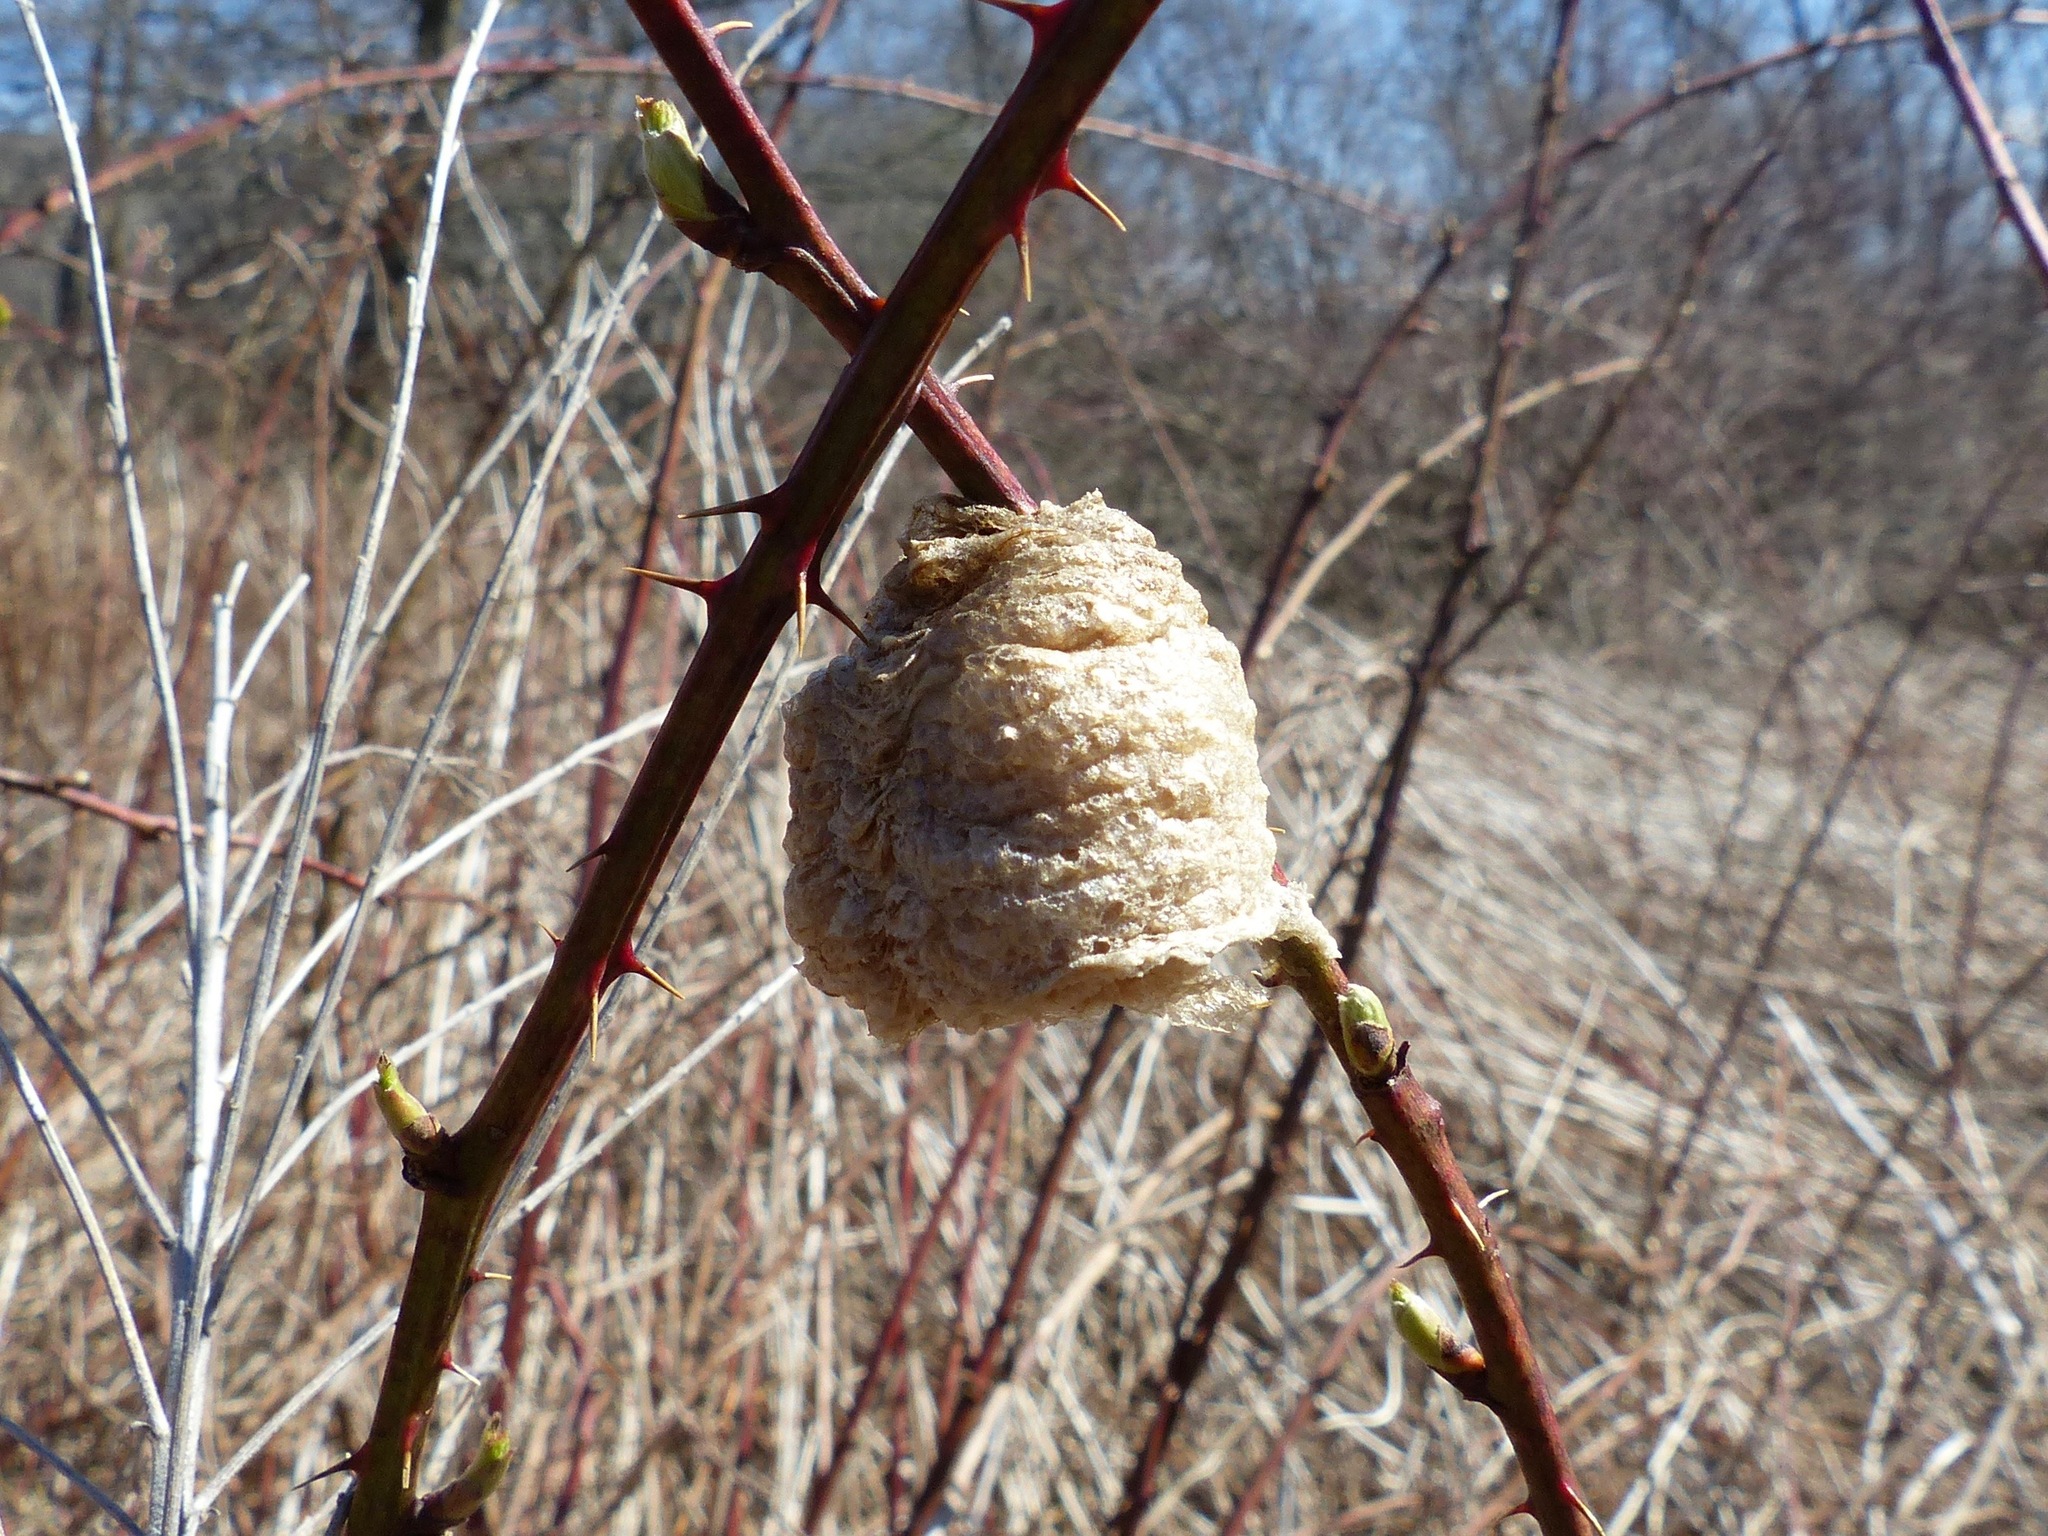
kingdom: Animalia
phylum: Arthropoda
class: Insecta
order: Mantodea
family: Mantidae
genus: Tenodera
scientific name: Tenodera sinensis
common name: Chinese mantis
